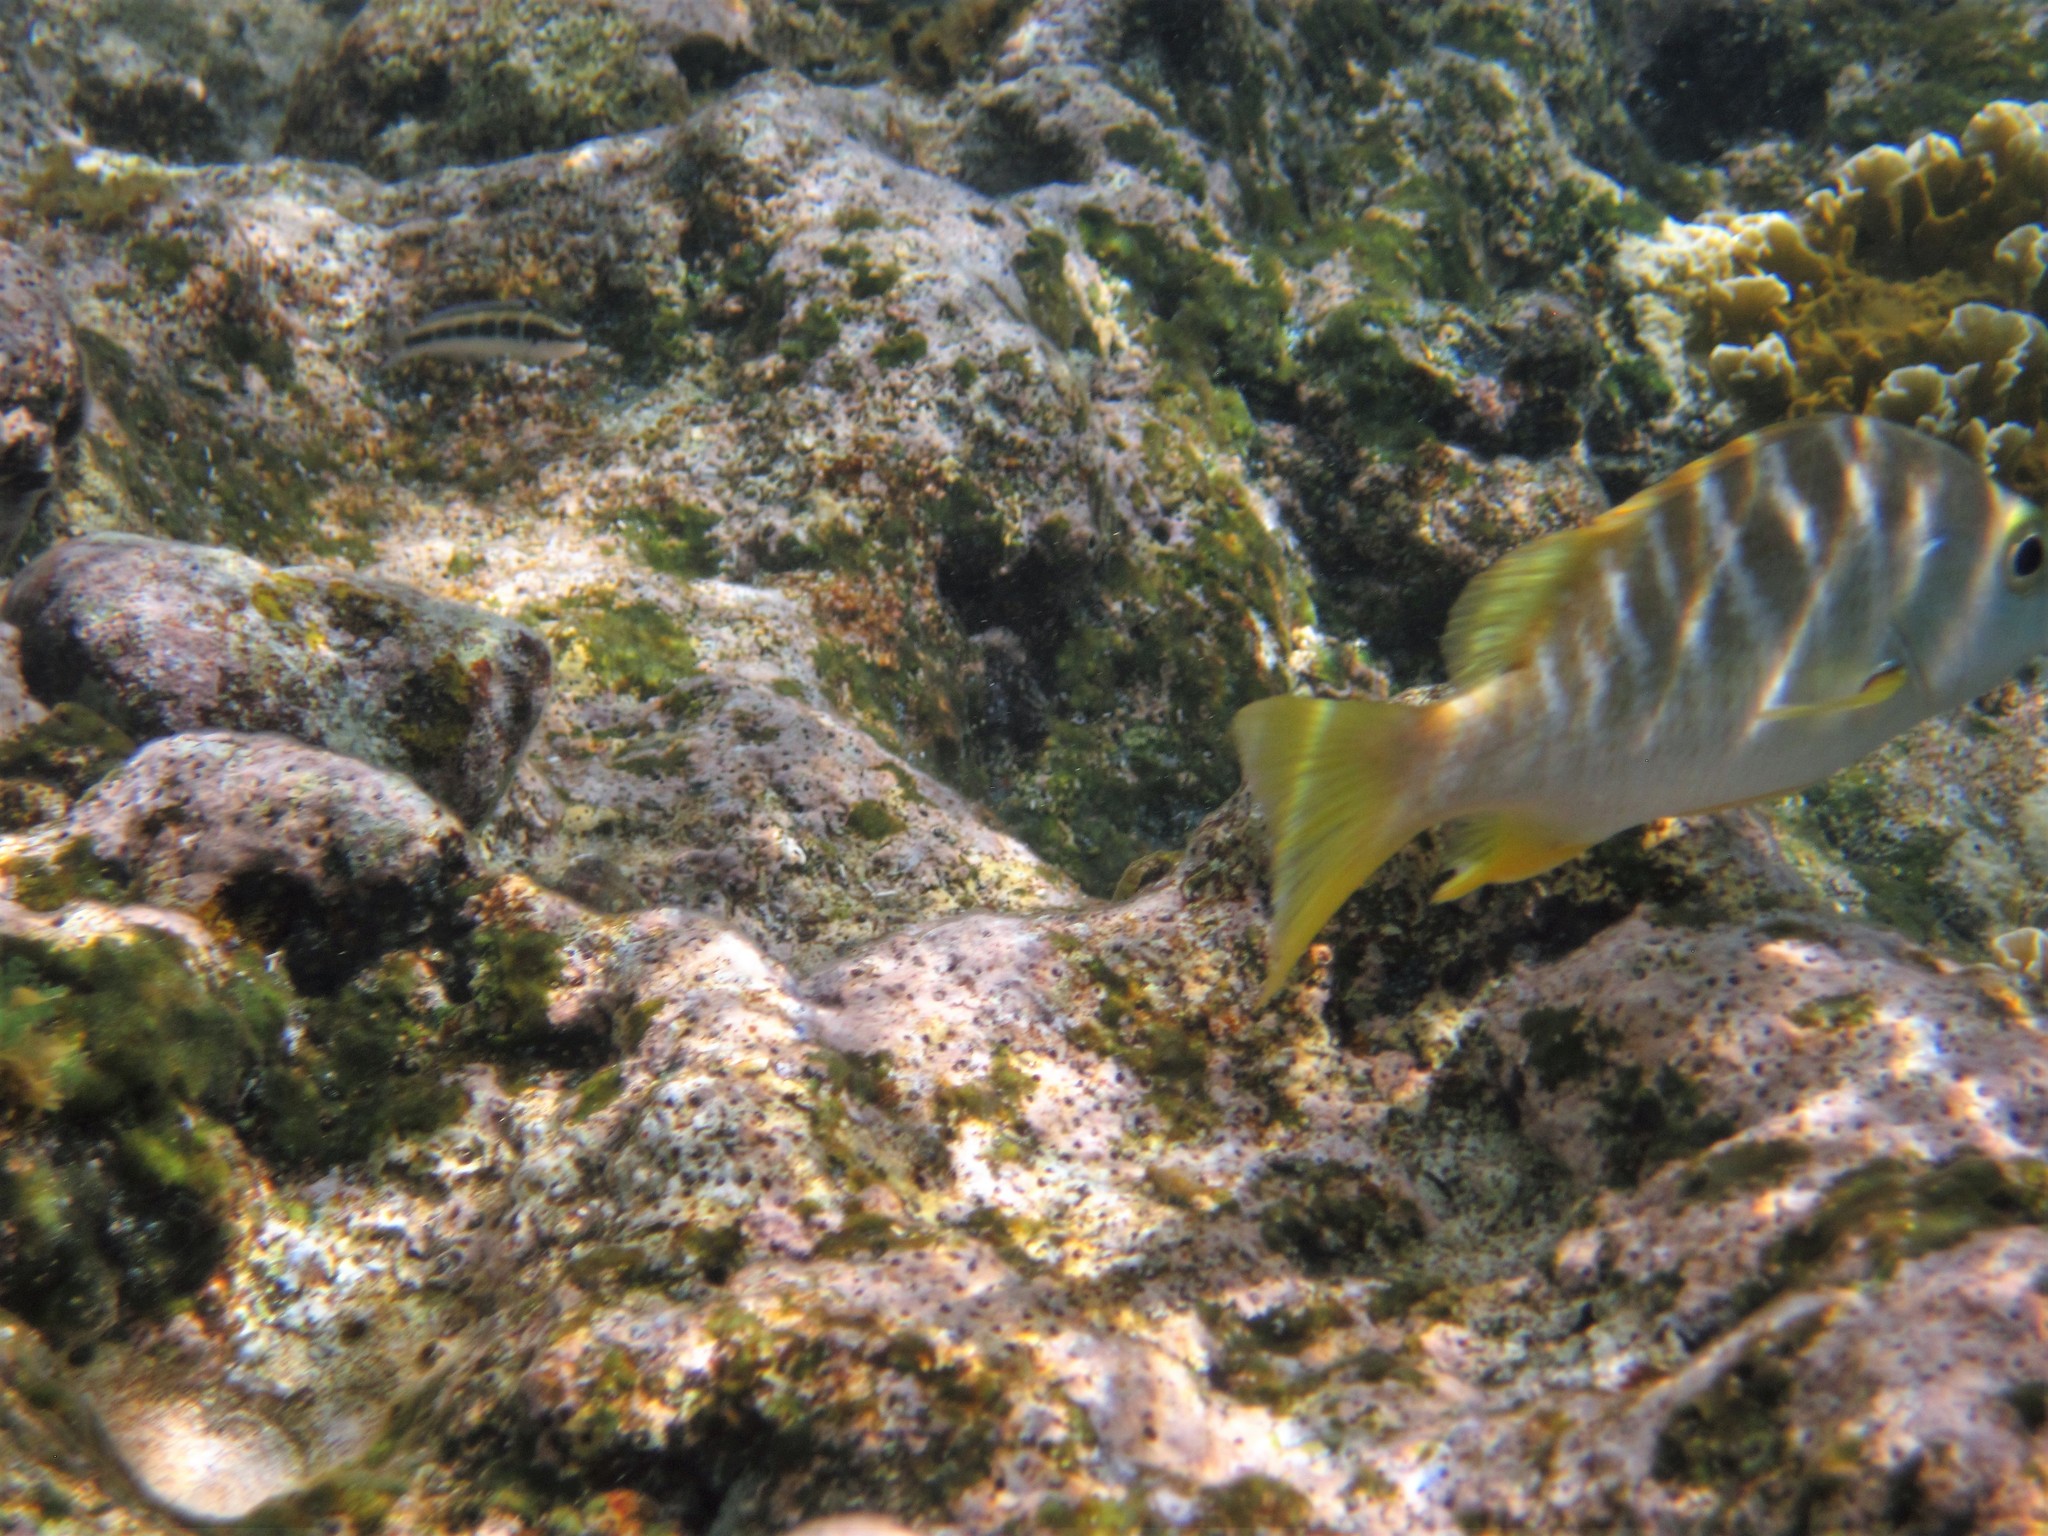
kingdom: Animalia
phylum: Chordata
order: Perciformes
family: Labridae
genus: Thalassoma
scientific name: Thalassoma bifasciatum
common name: Bluehead wrasse
